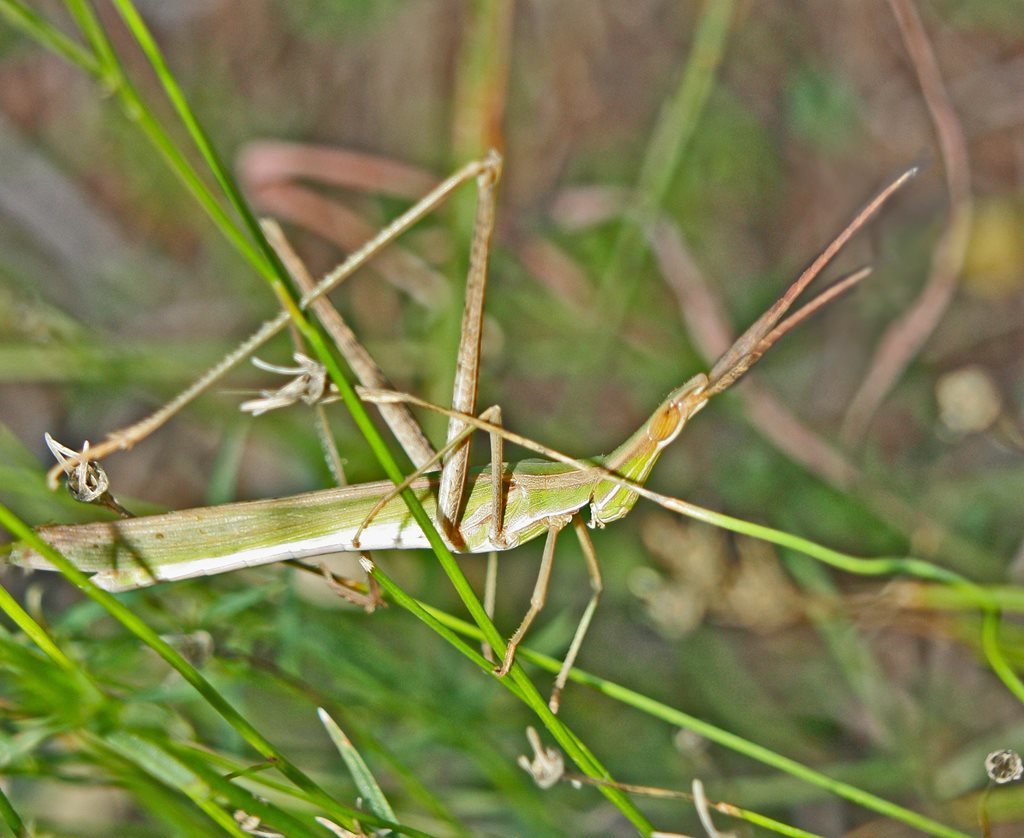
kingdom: Animalia
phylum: Arthropoda
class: Insecta
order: Orthoptera
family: Acrididae
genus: Acrida
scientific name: Acrida conica
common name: Giant green slantface
